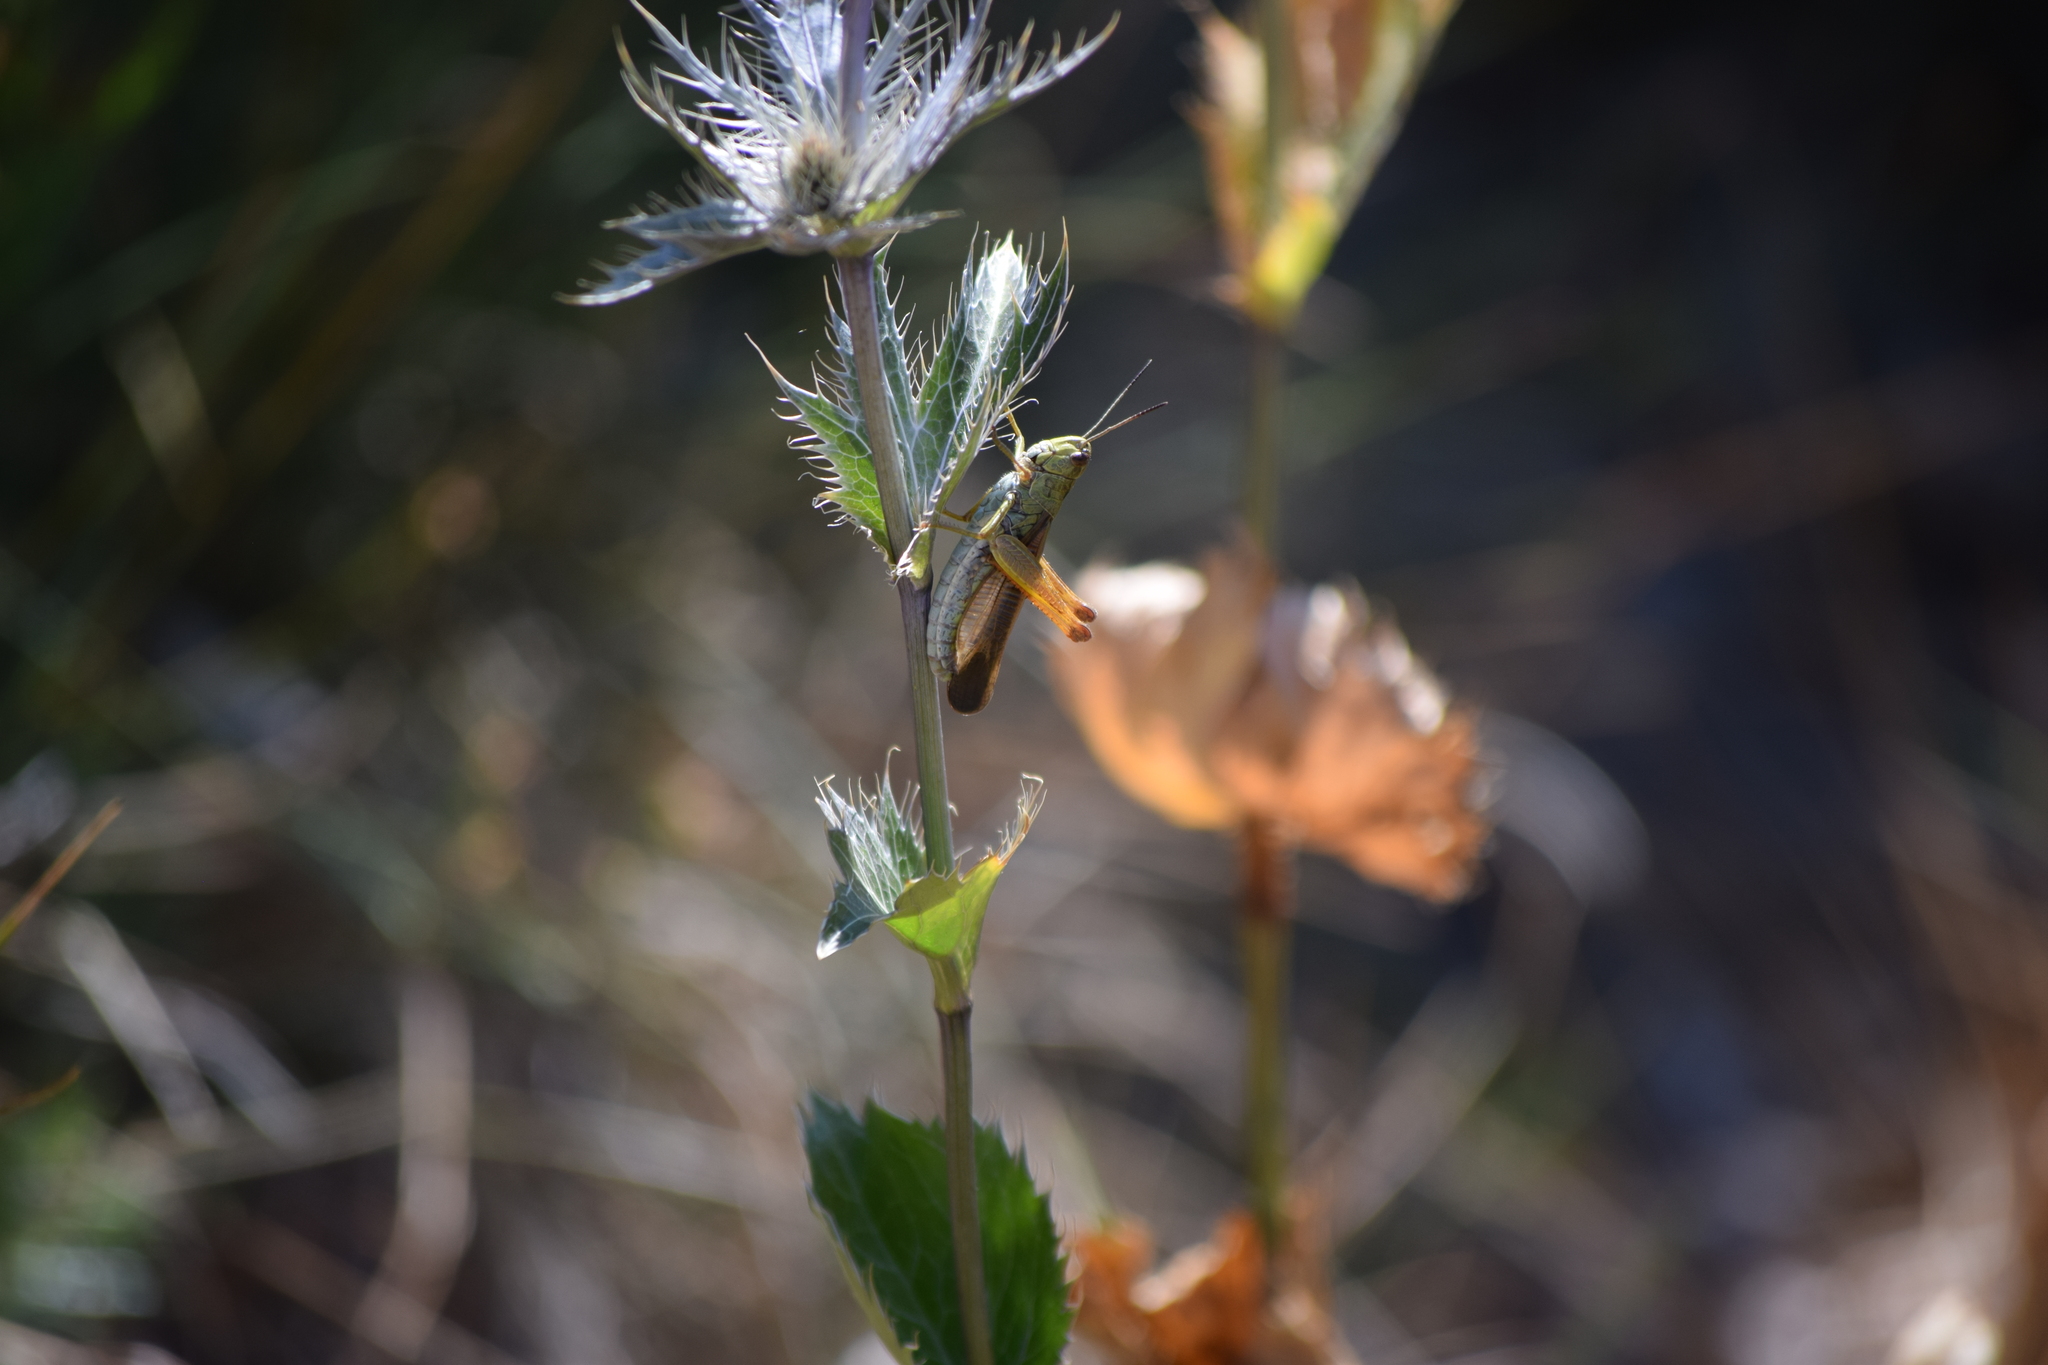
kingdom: Animalia
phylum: Arthropoda
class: Insecta
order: Orthoptera
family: Acrididae
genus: Stauroderus
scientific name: Stauroderus scalaris
